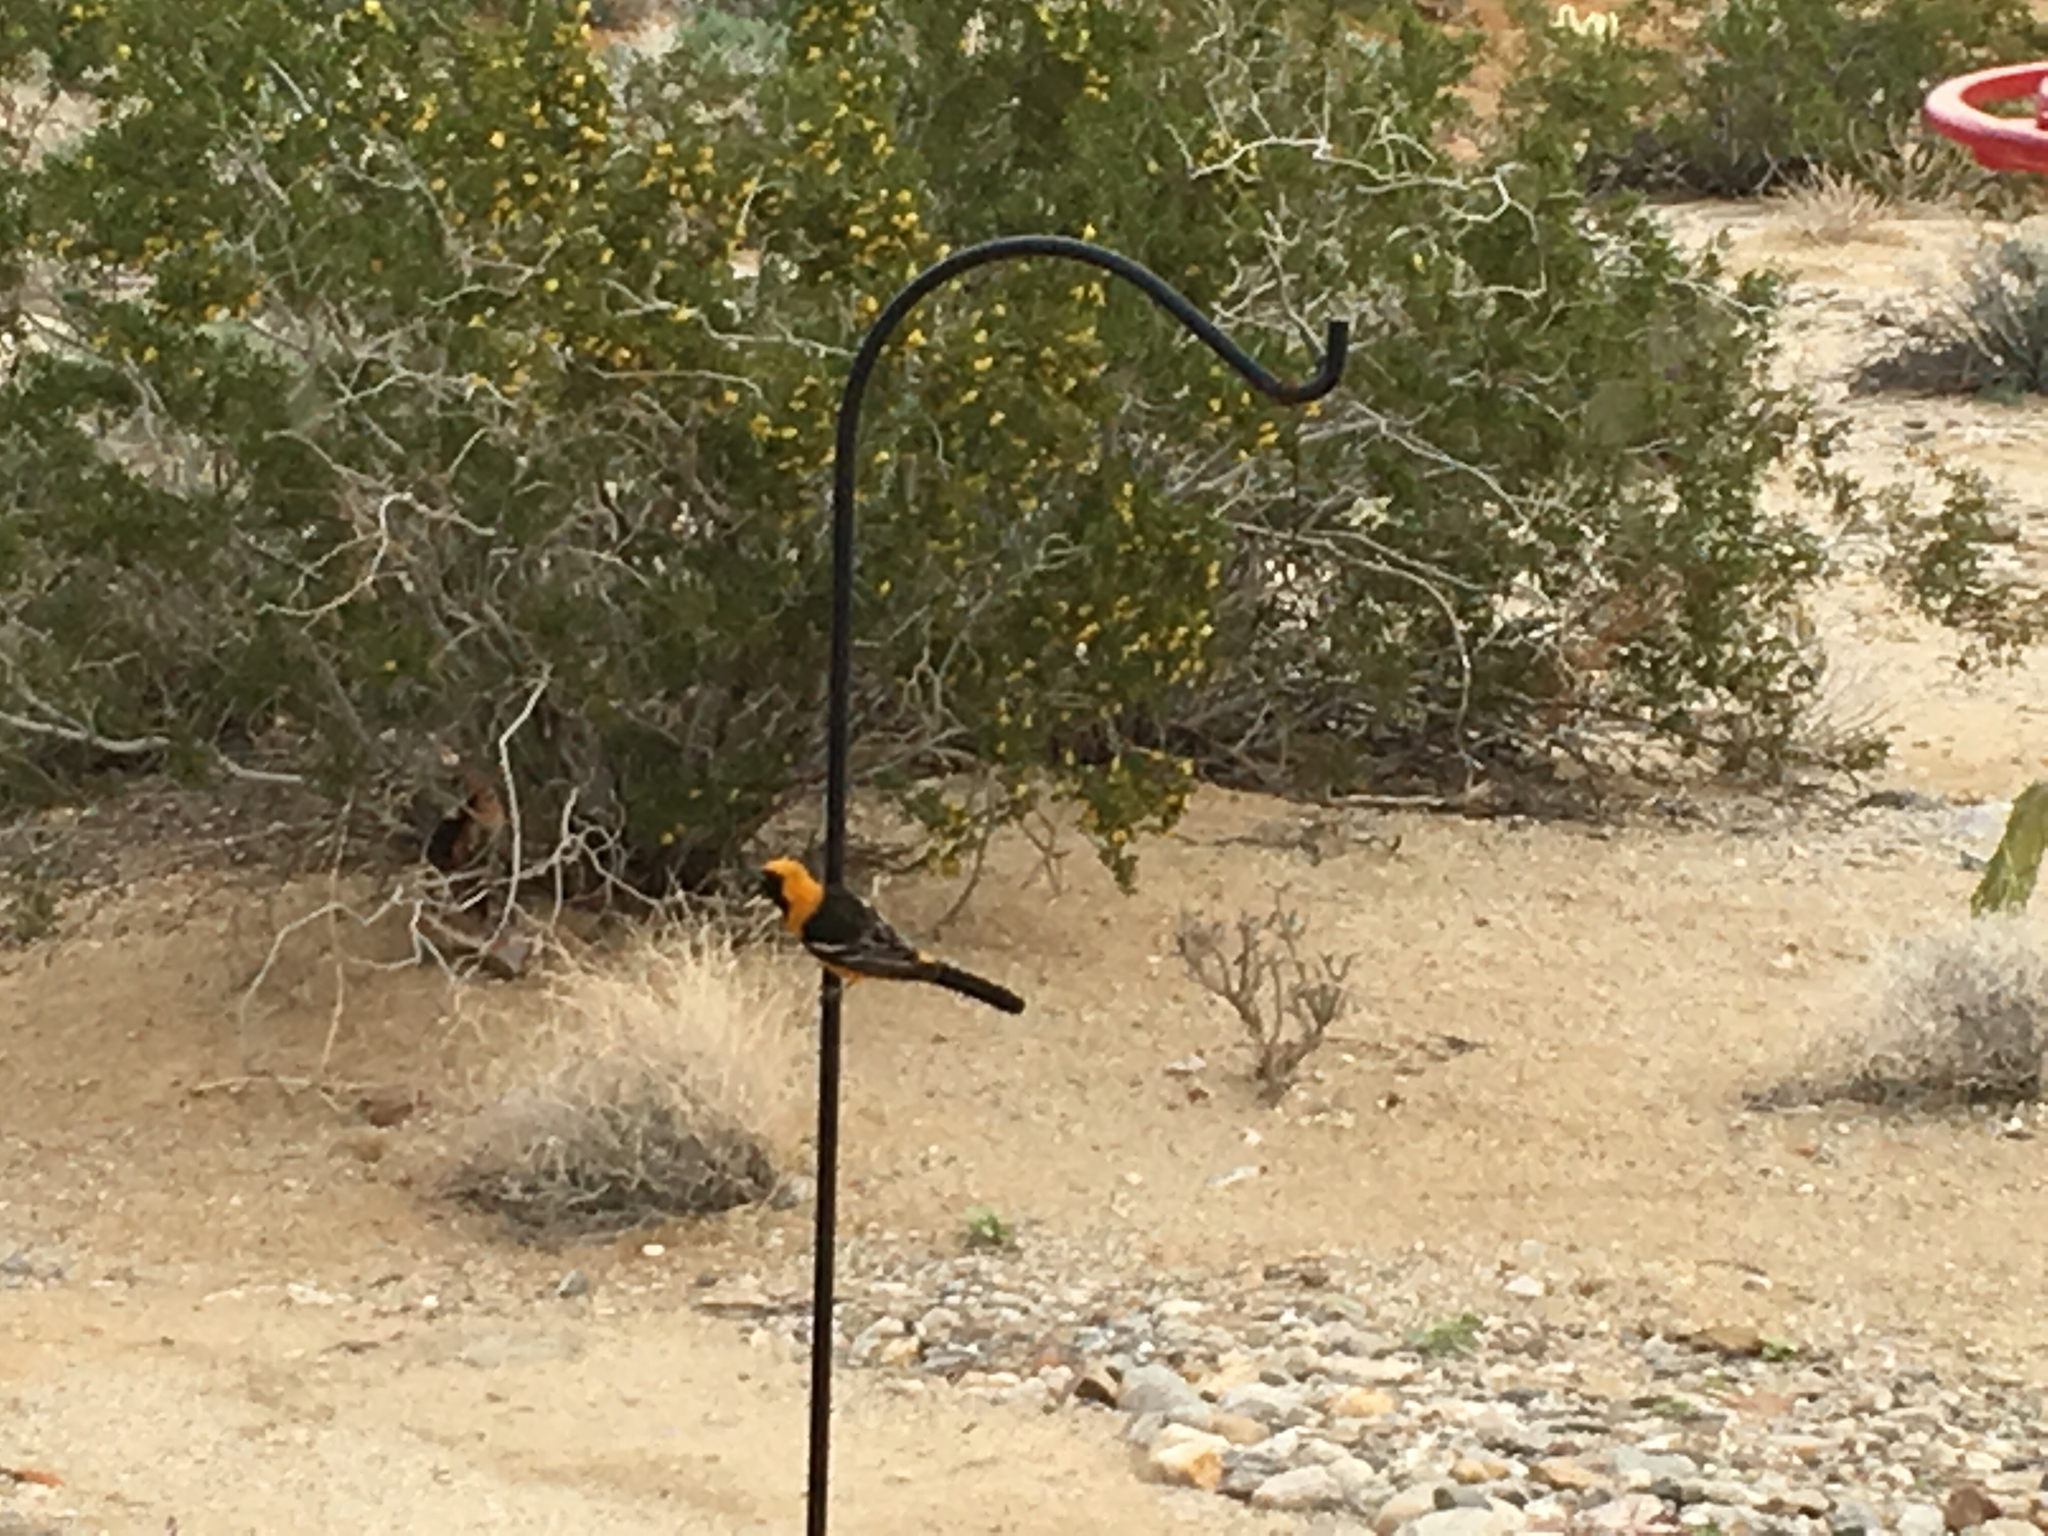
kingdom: Animalia
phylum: Chordata
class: Aves
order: Passeriformes
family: Icteridae
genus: Icterus
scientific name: Icterus cucullatus
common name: Hooded oriole
